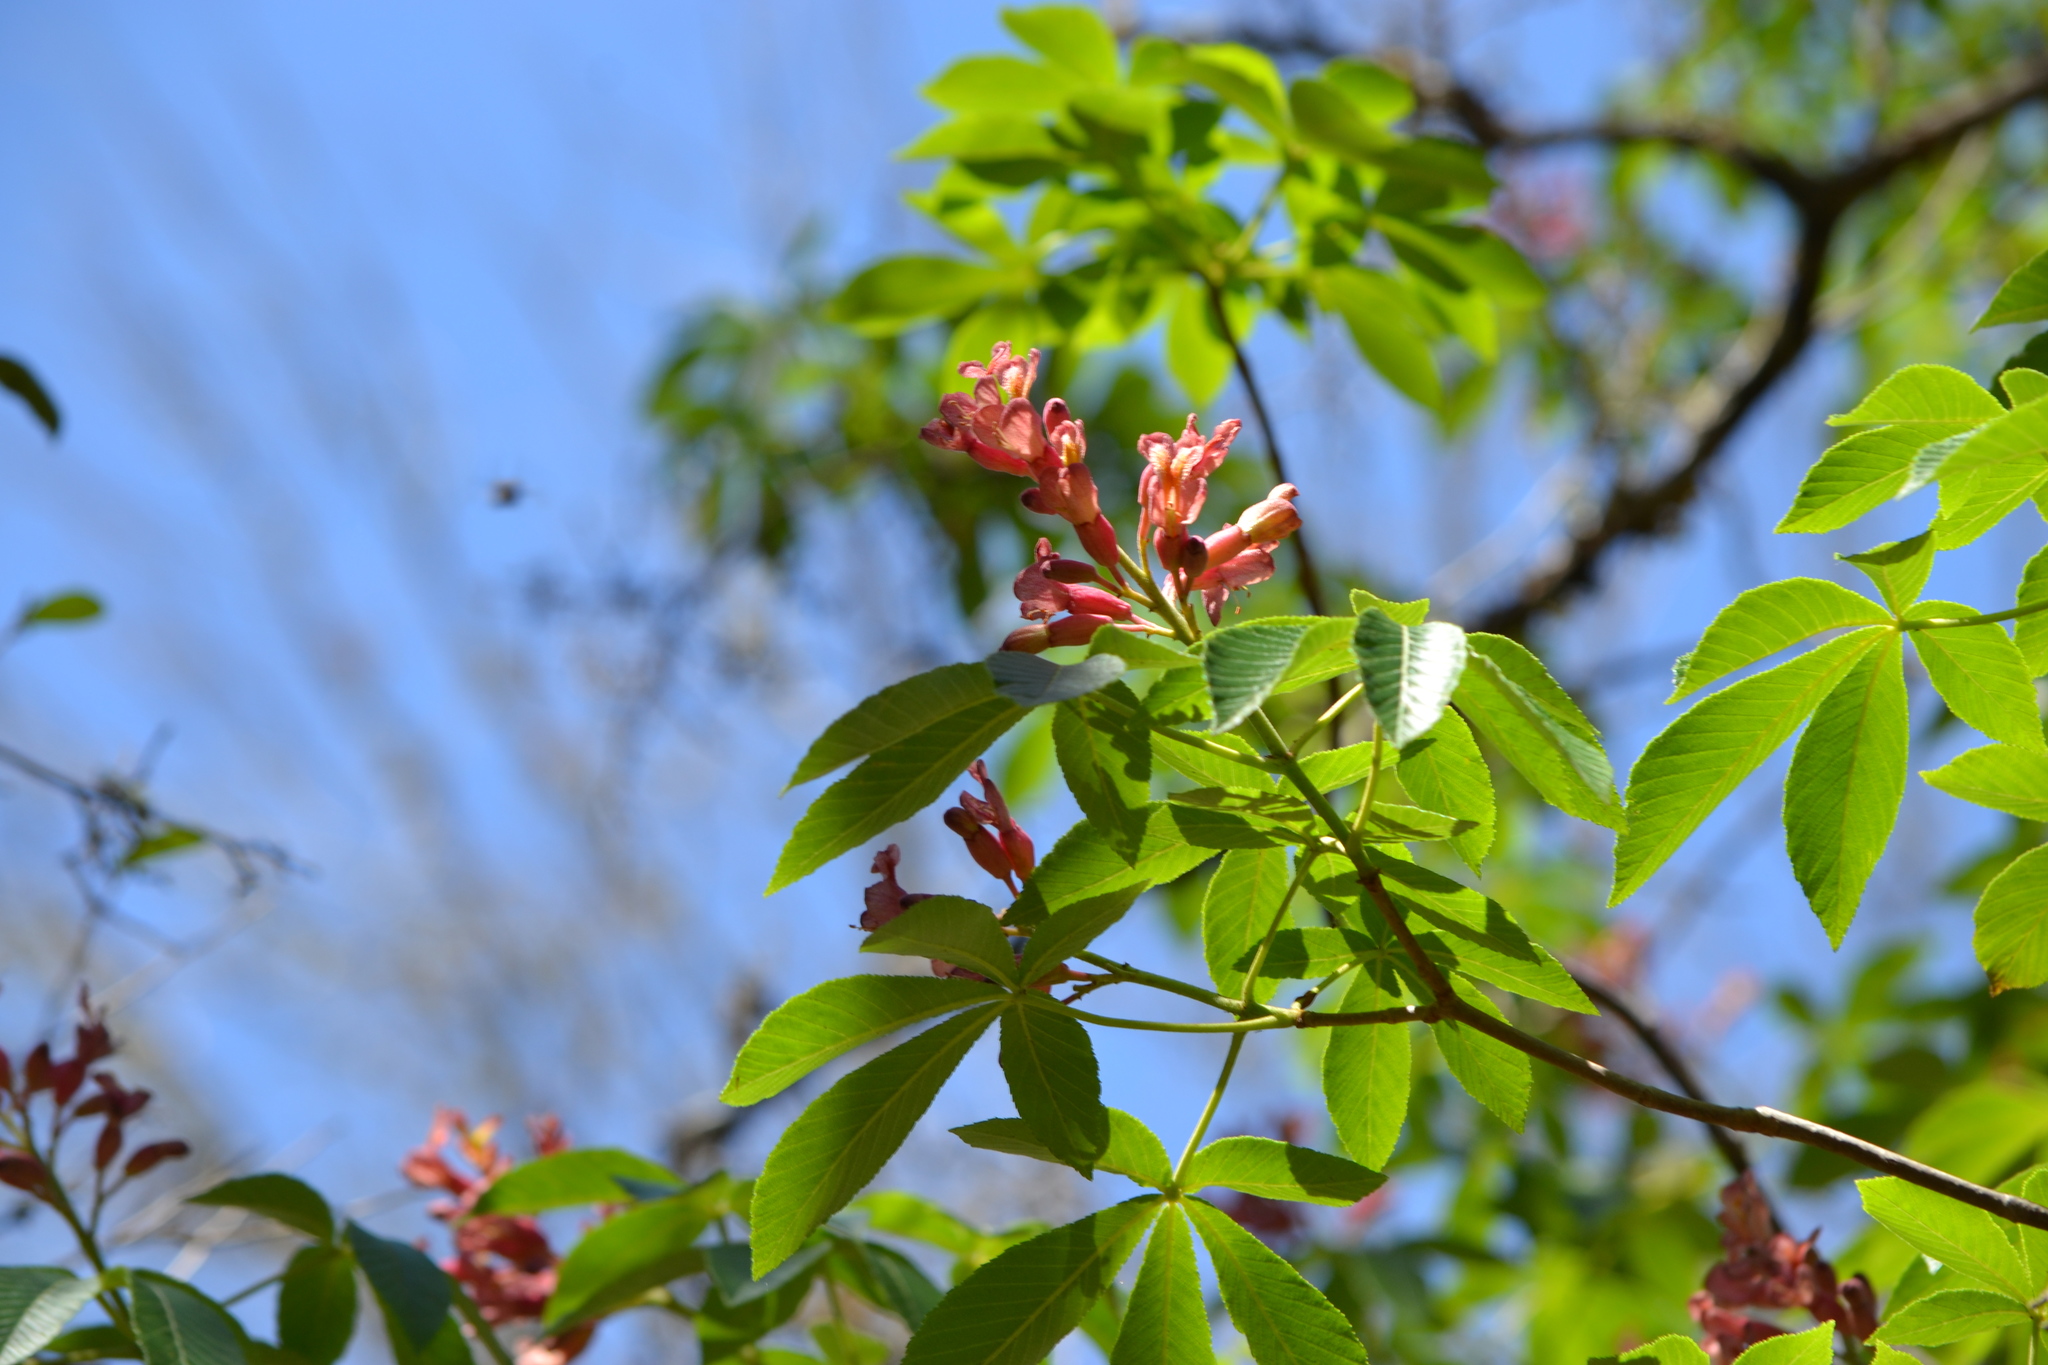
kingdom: Plantae
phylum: Tracheophyta
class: Magnoliopsida
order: Sapindales
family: Sapindaceae
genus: Aesculus
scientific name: Aesculus pavia
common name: Red buckeye
